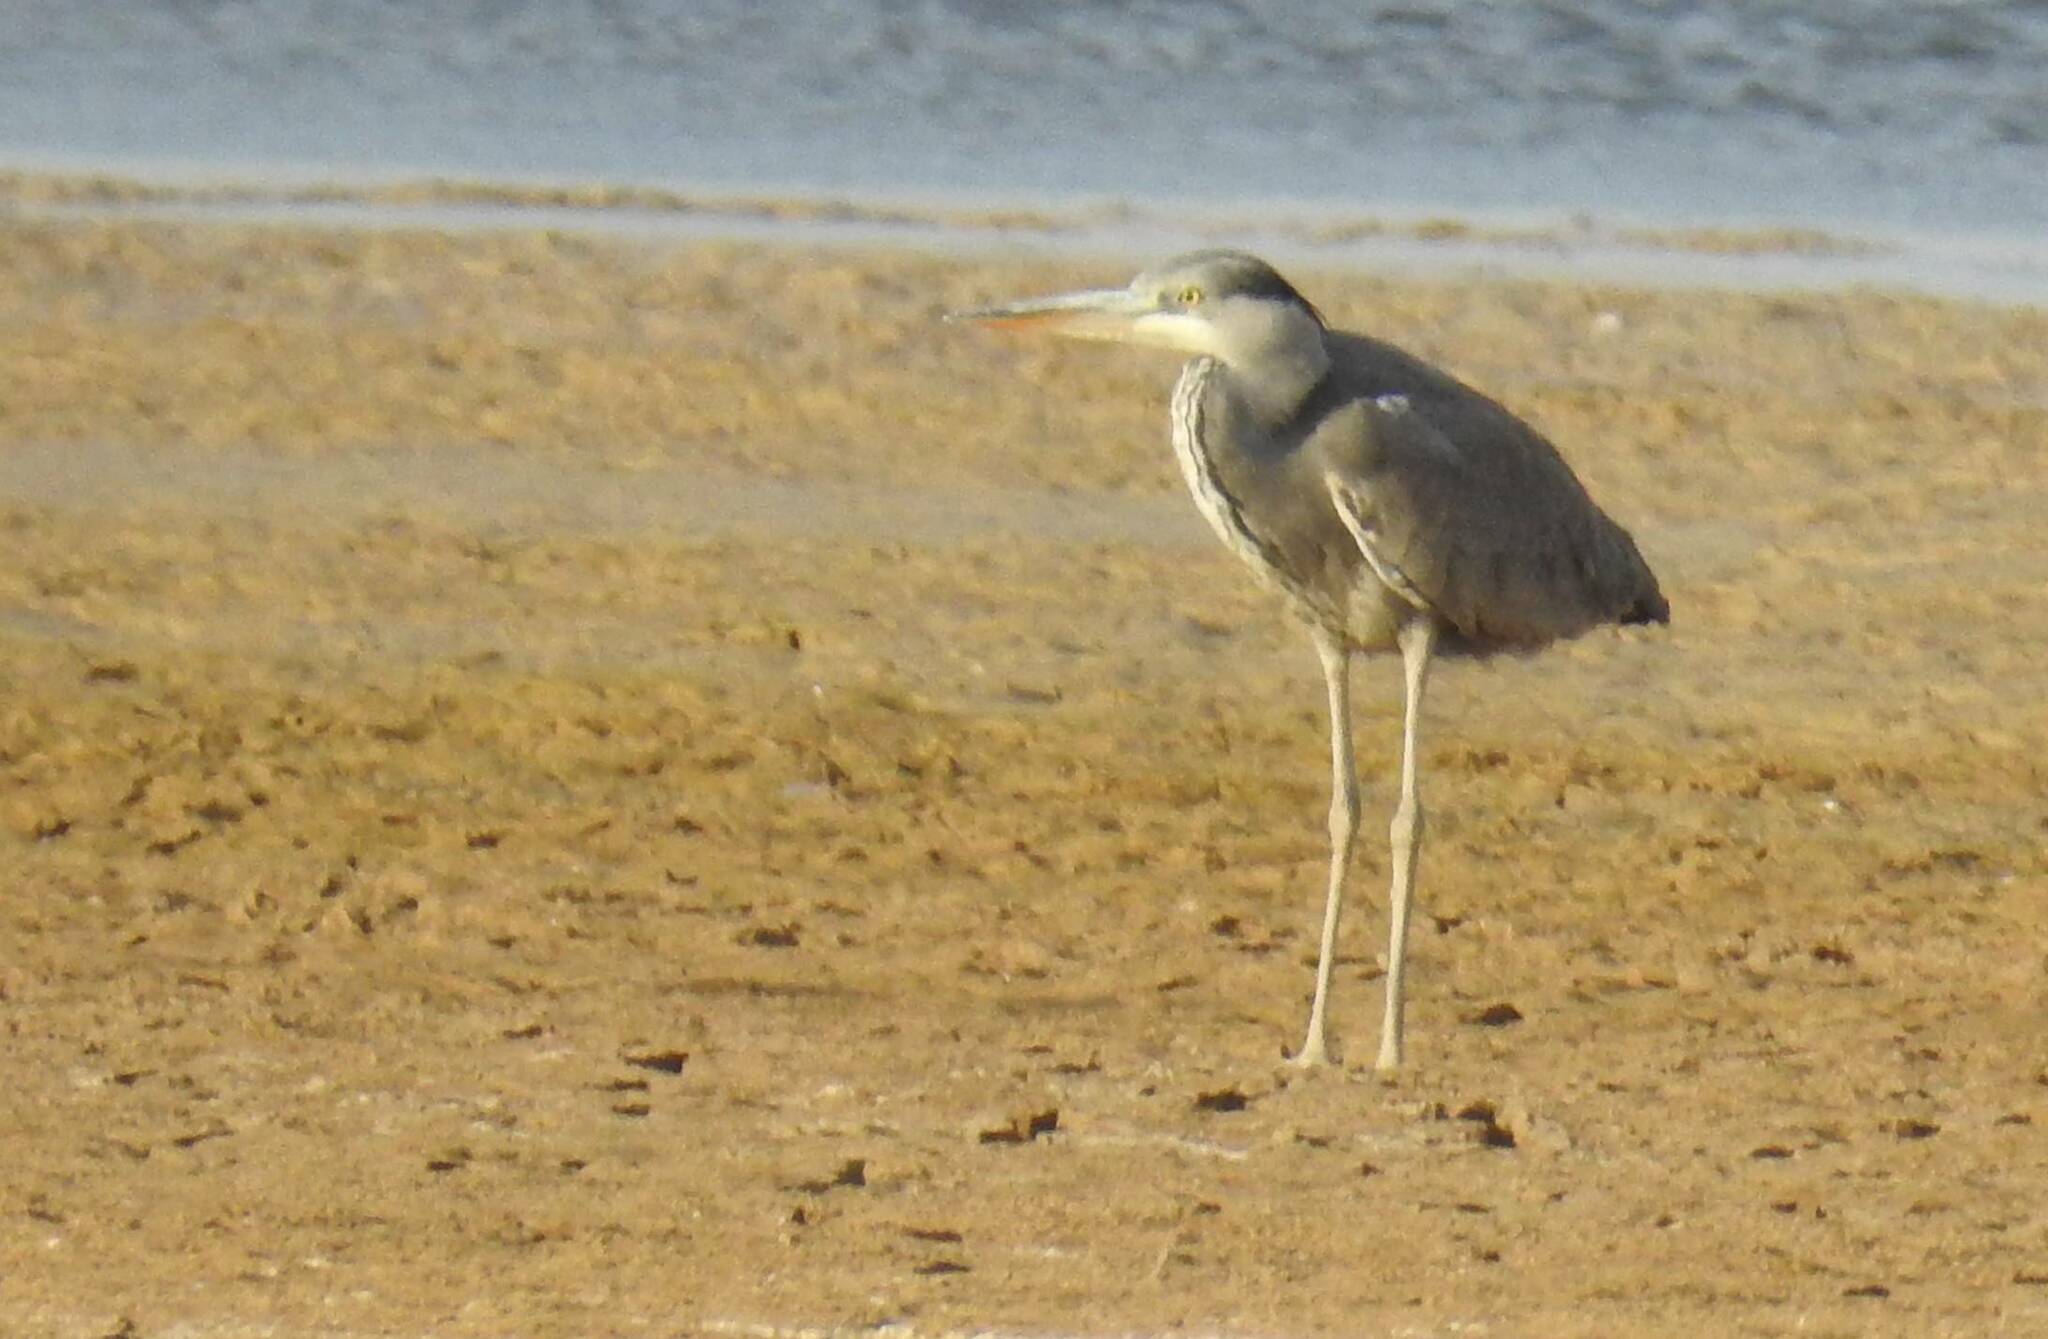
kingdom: Animalia
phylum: Chordata
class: Aves
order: Pelecaniformes
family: Ardeidae
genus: Ardea
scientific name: Ardea cinerea
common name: Grey heron
